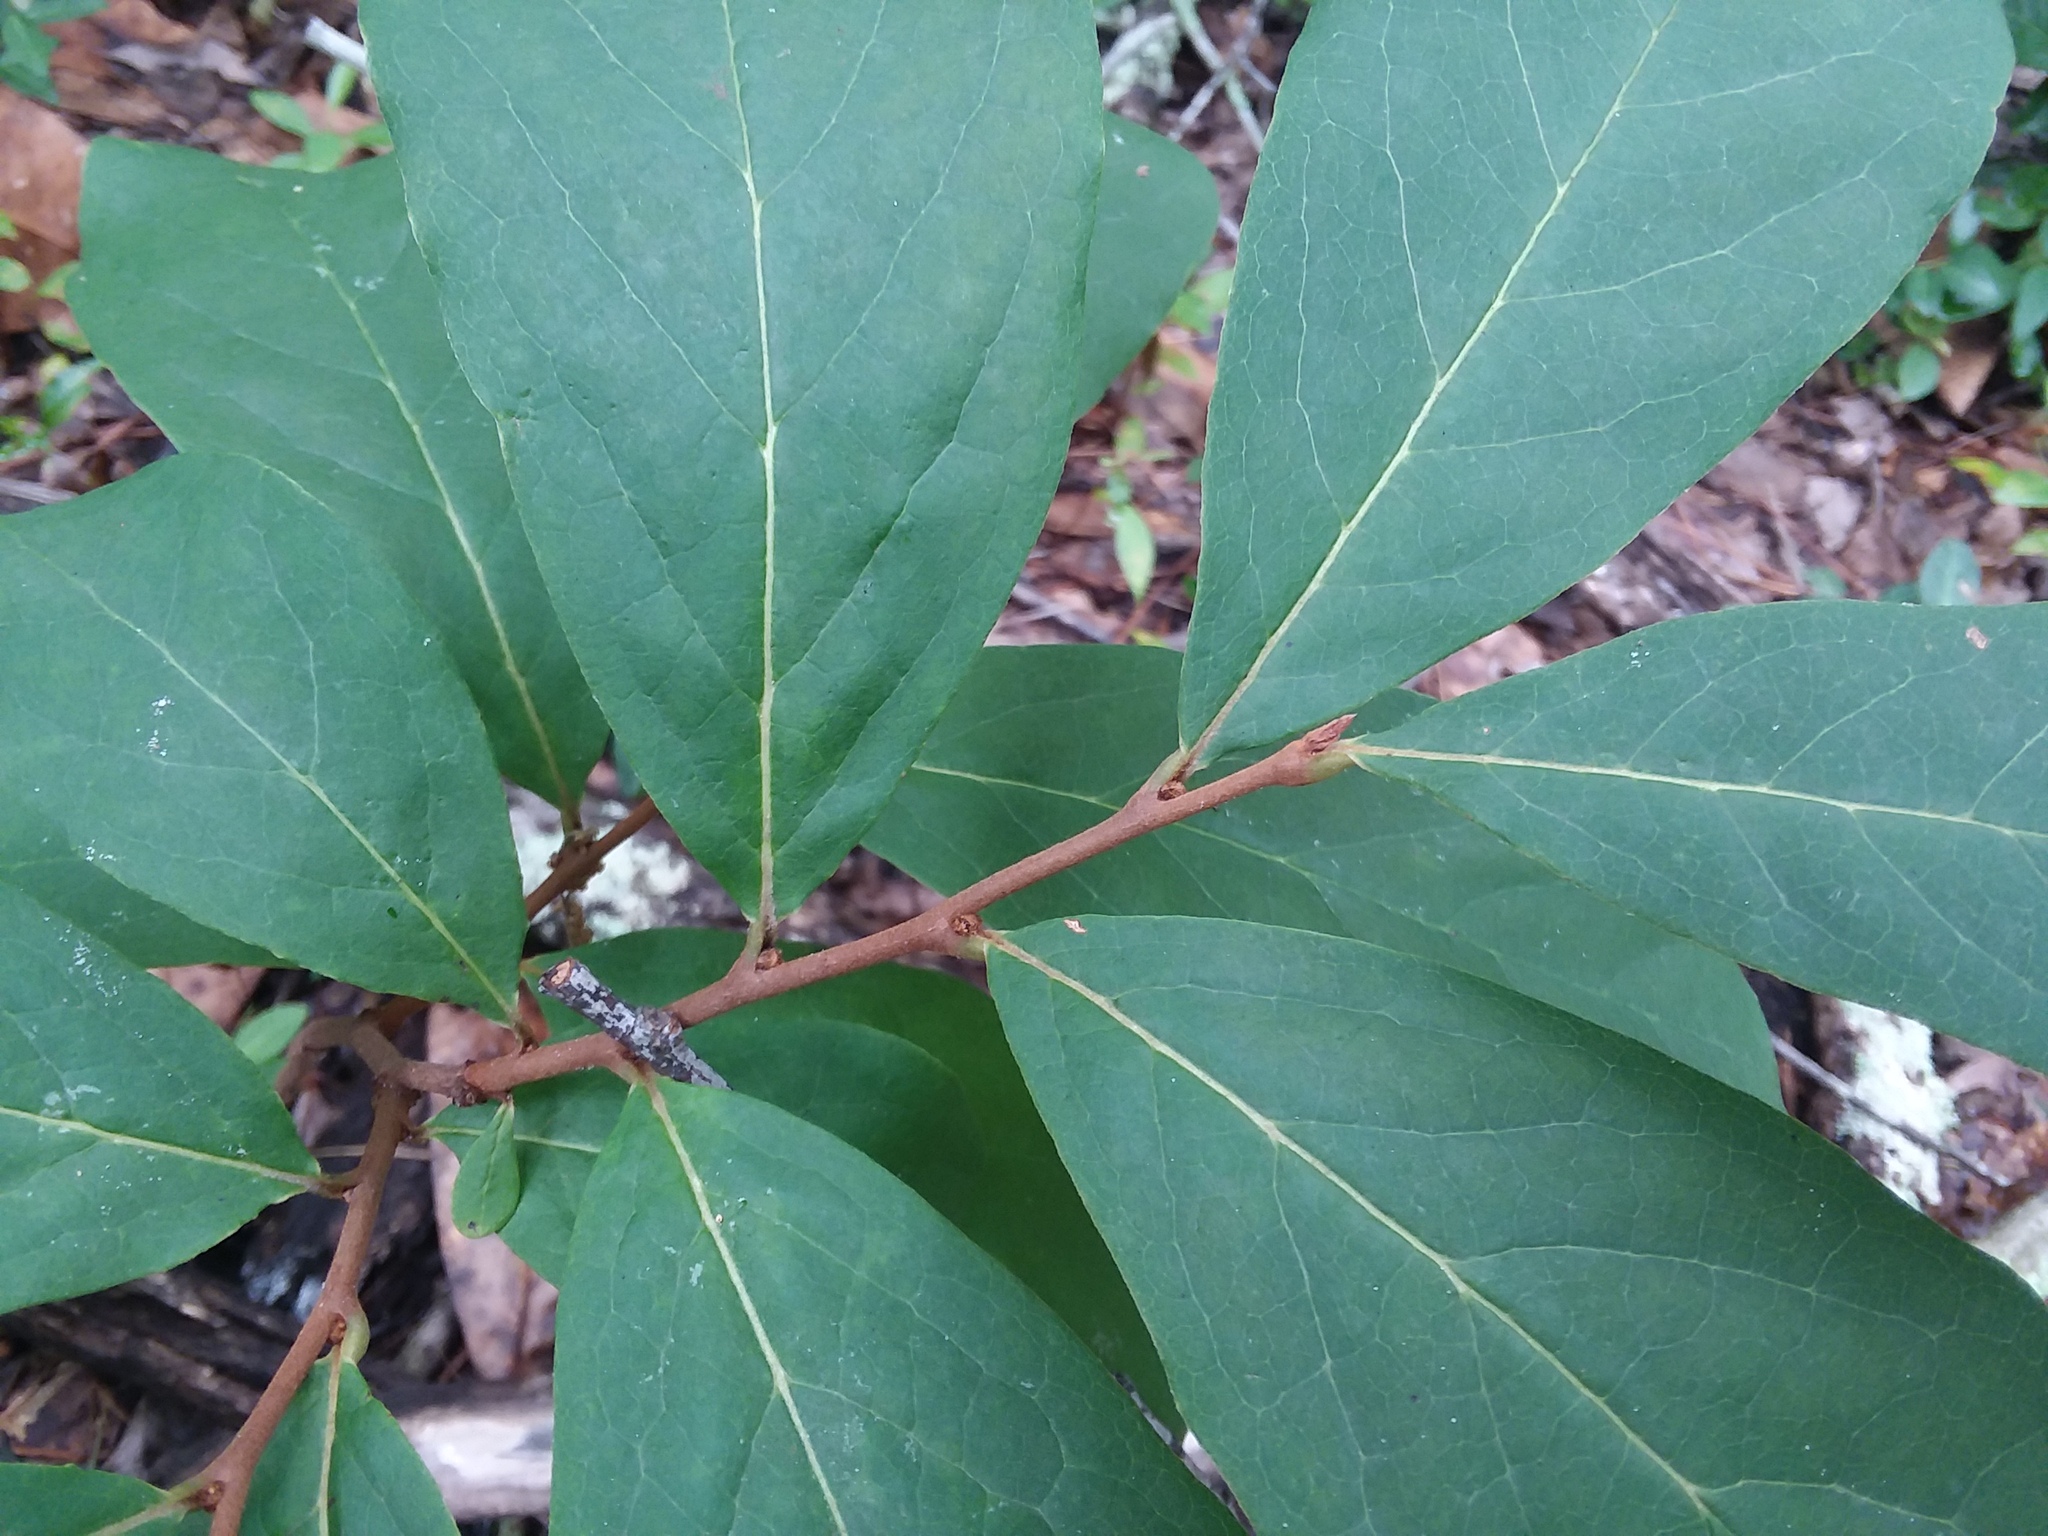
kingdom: Plantae
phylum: Tracheophyta
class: Magnoliopsida
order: Magnoliales
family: Annonaceae
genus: Asimina
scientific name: Asimina parviflora
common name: Dwarf pawpaw
